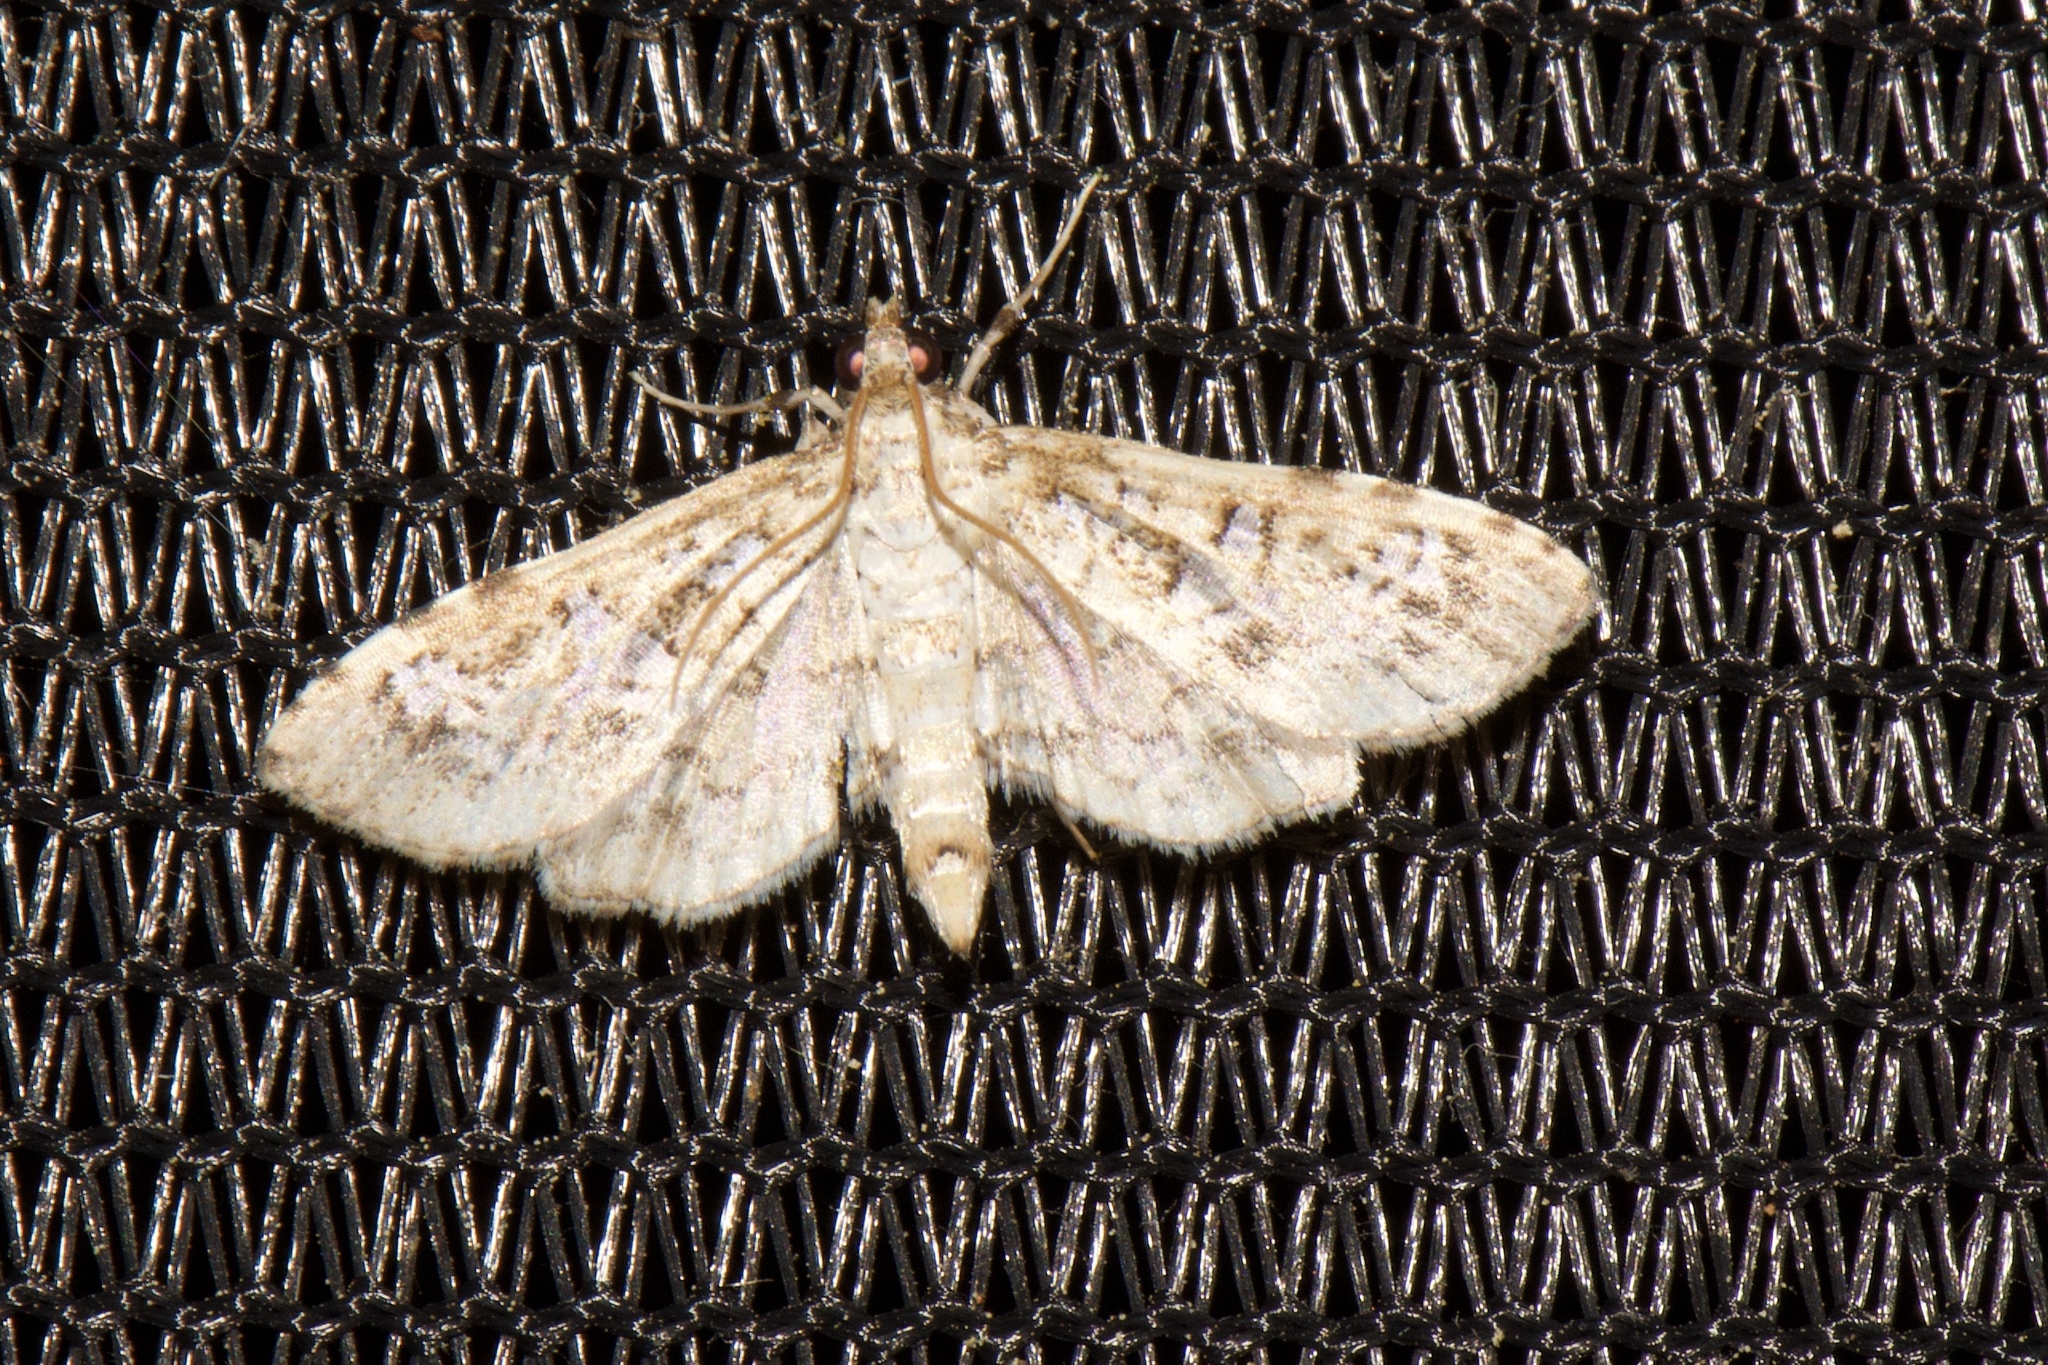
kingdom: Animalia
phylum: Arthropoda
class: Insecta
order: Lepidoptera
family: Crambidae
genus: Samea
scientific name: Samea multiplicalis
